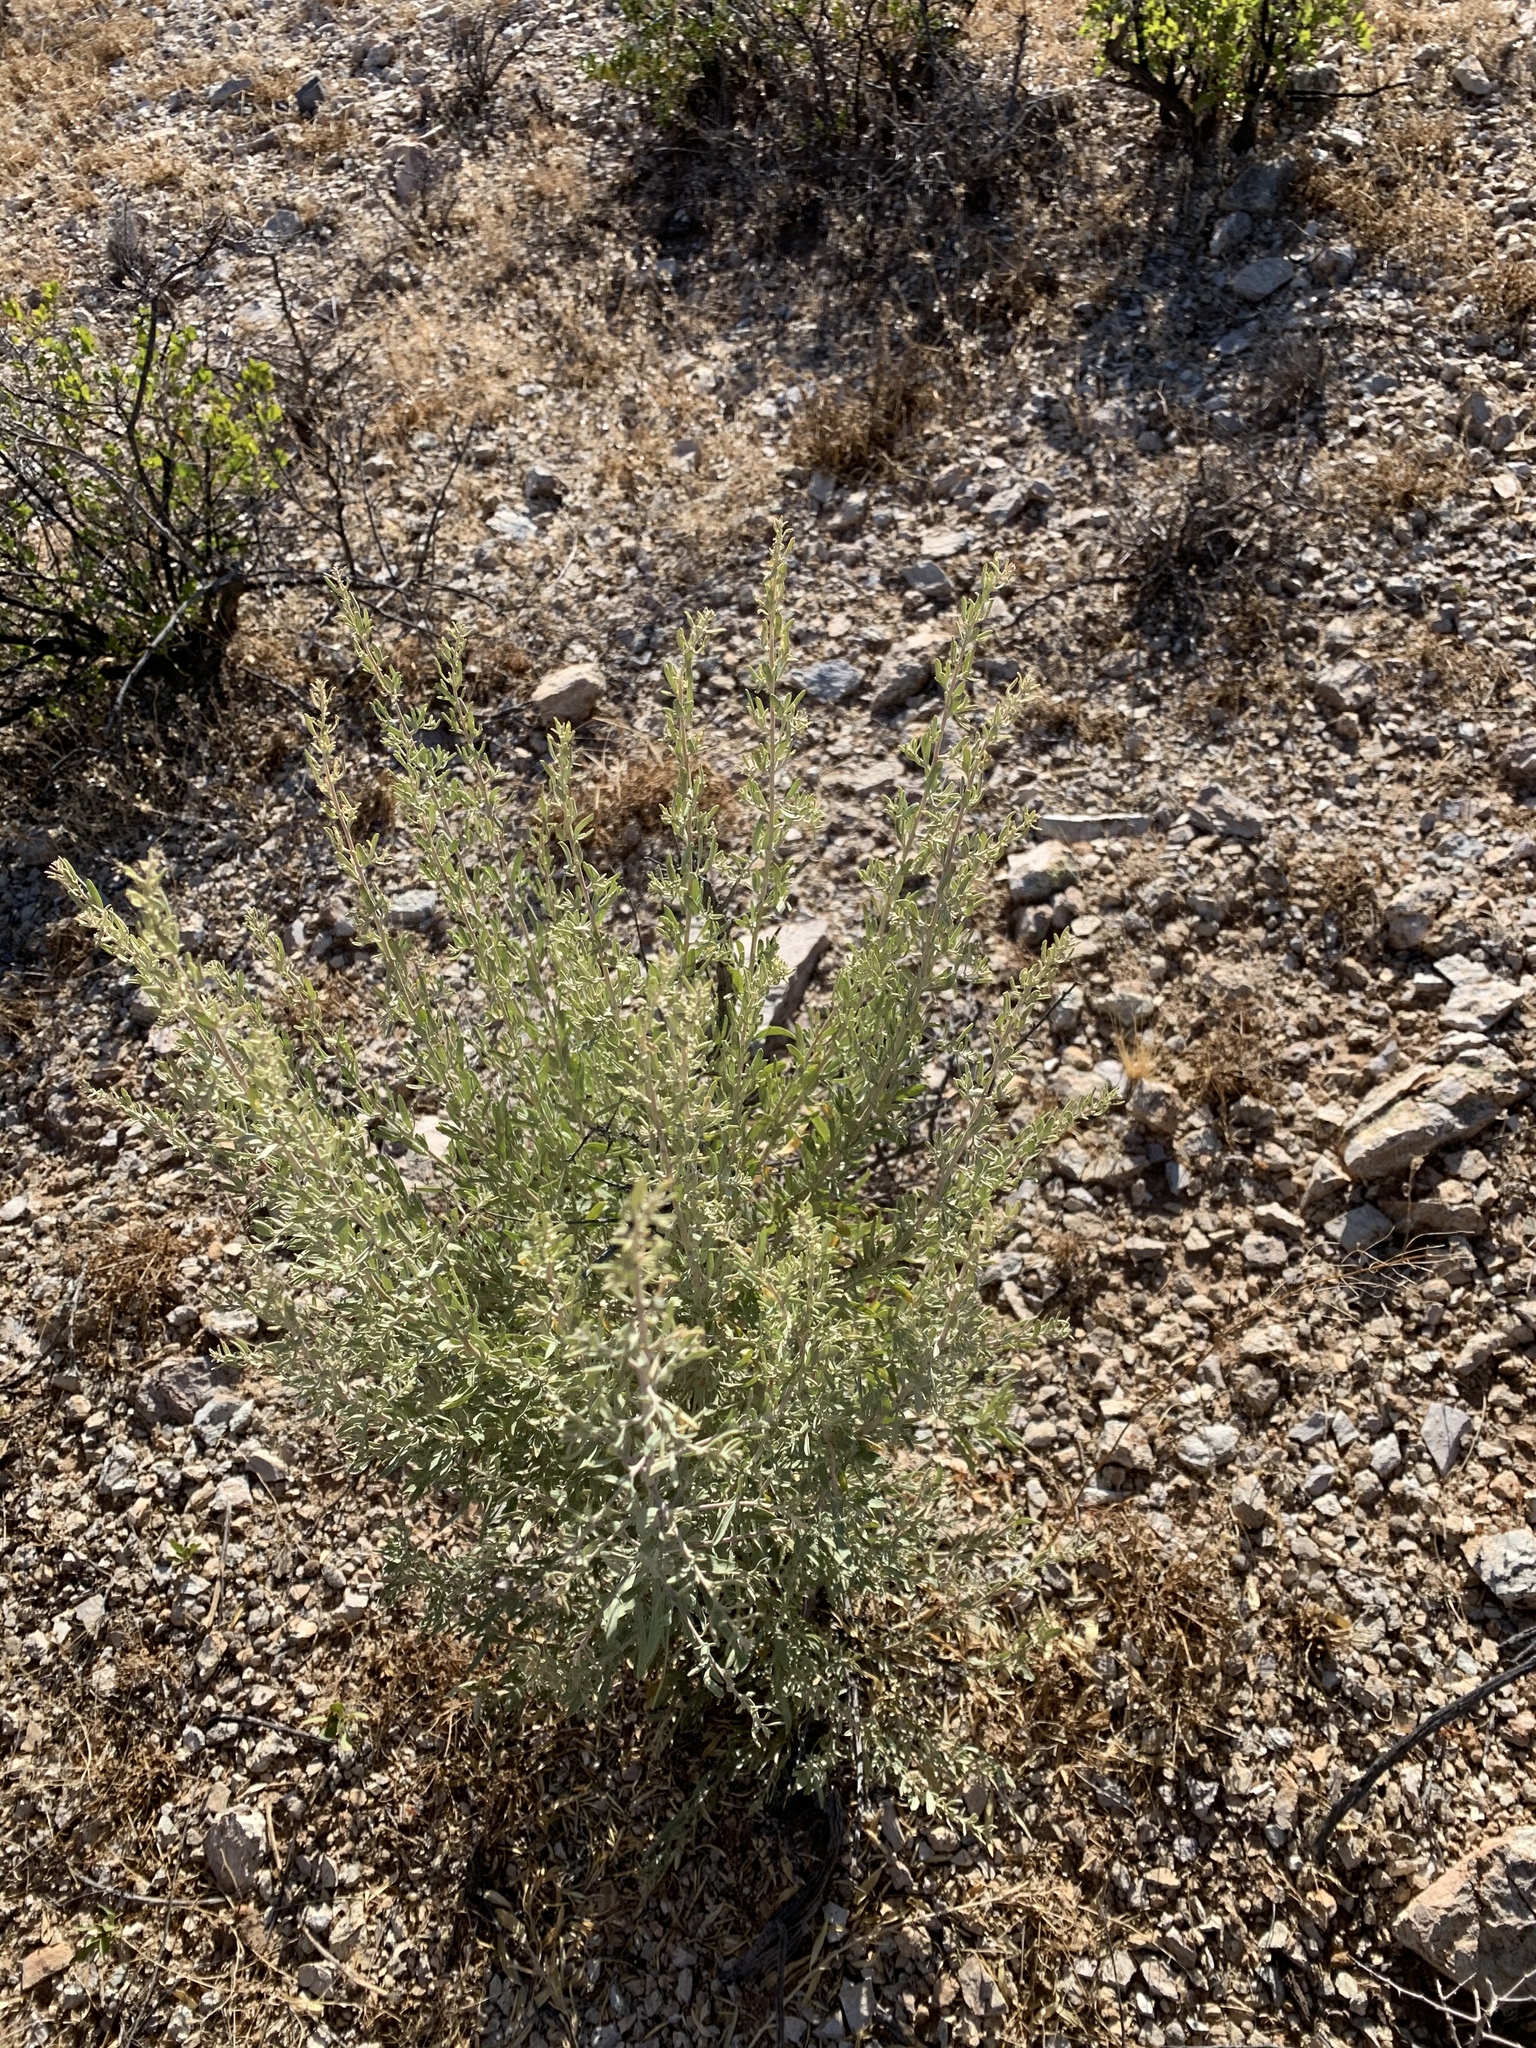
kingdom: Plantae
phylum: Tracheophyta
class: Magnoliopsida
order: Caryophyllales
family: Amaranthaceae
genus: Atriplex
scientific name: Atriplex canescens
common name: Four-wing saltbush
